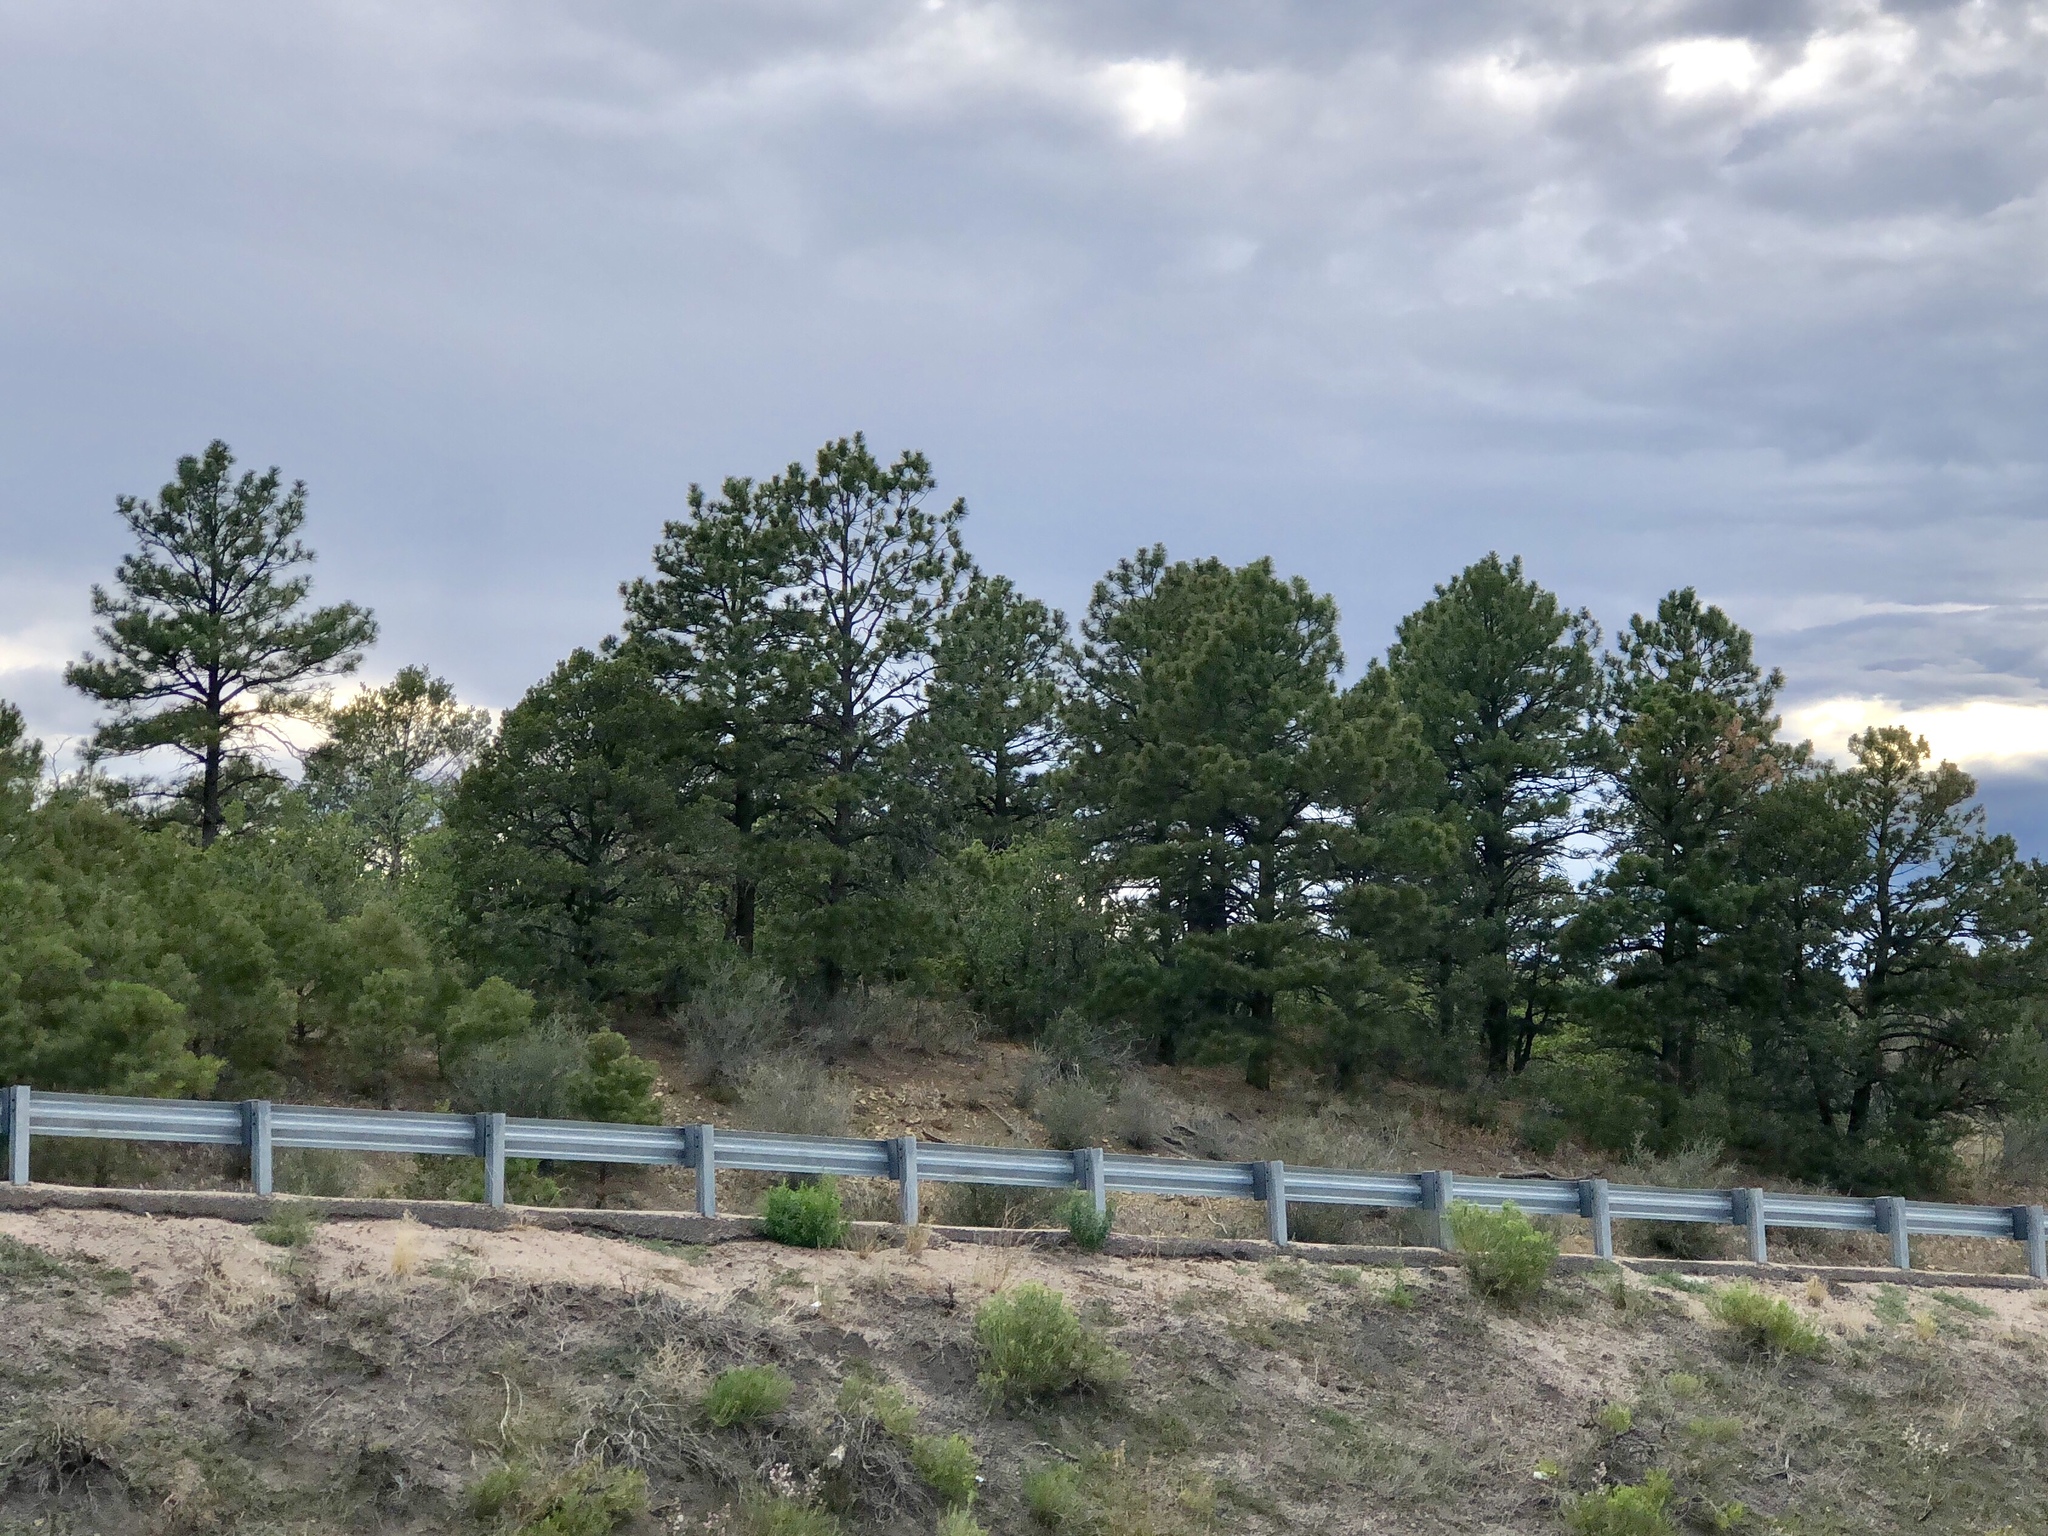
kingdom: Plantae
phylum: Tracheophyta
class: Pinopsida
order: Pinales
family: Pinaceae
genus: Pinus
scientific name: Pinus ponderosa
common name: Western yellow-pine
